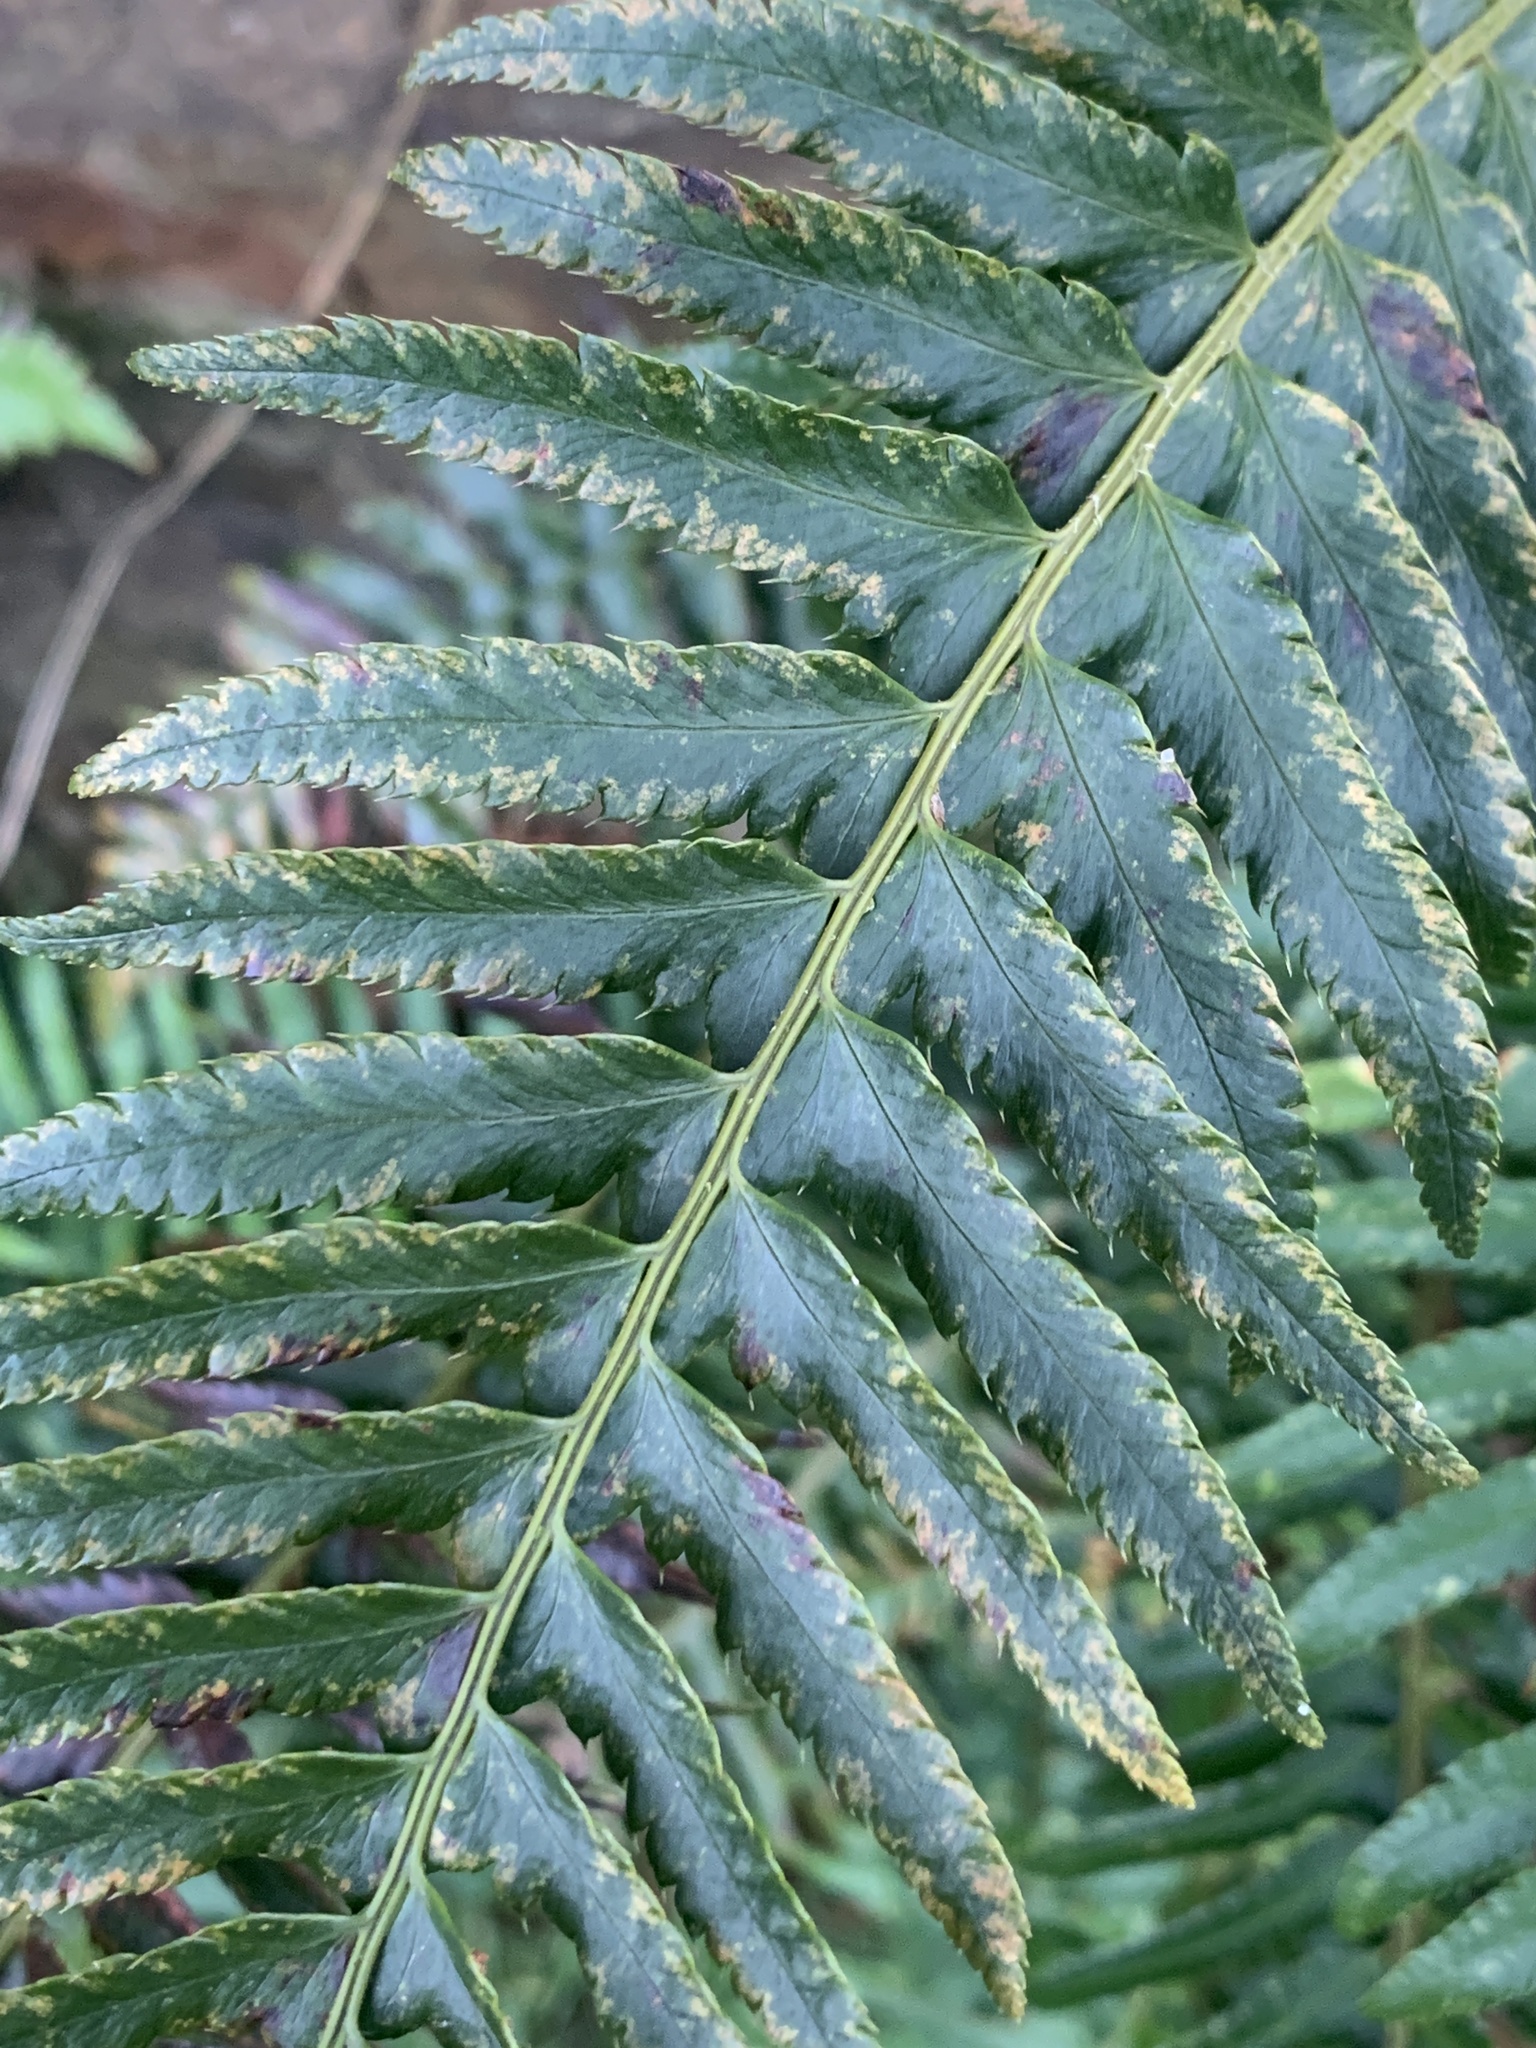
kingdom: Plantae
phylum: Tracheophyta
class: Polypodiopsida
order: Polypodiales
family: Dryopteridaceae
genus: Polystichum
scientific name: Polystichum munitum
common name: Western sword-fern
